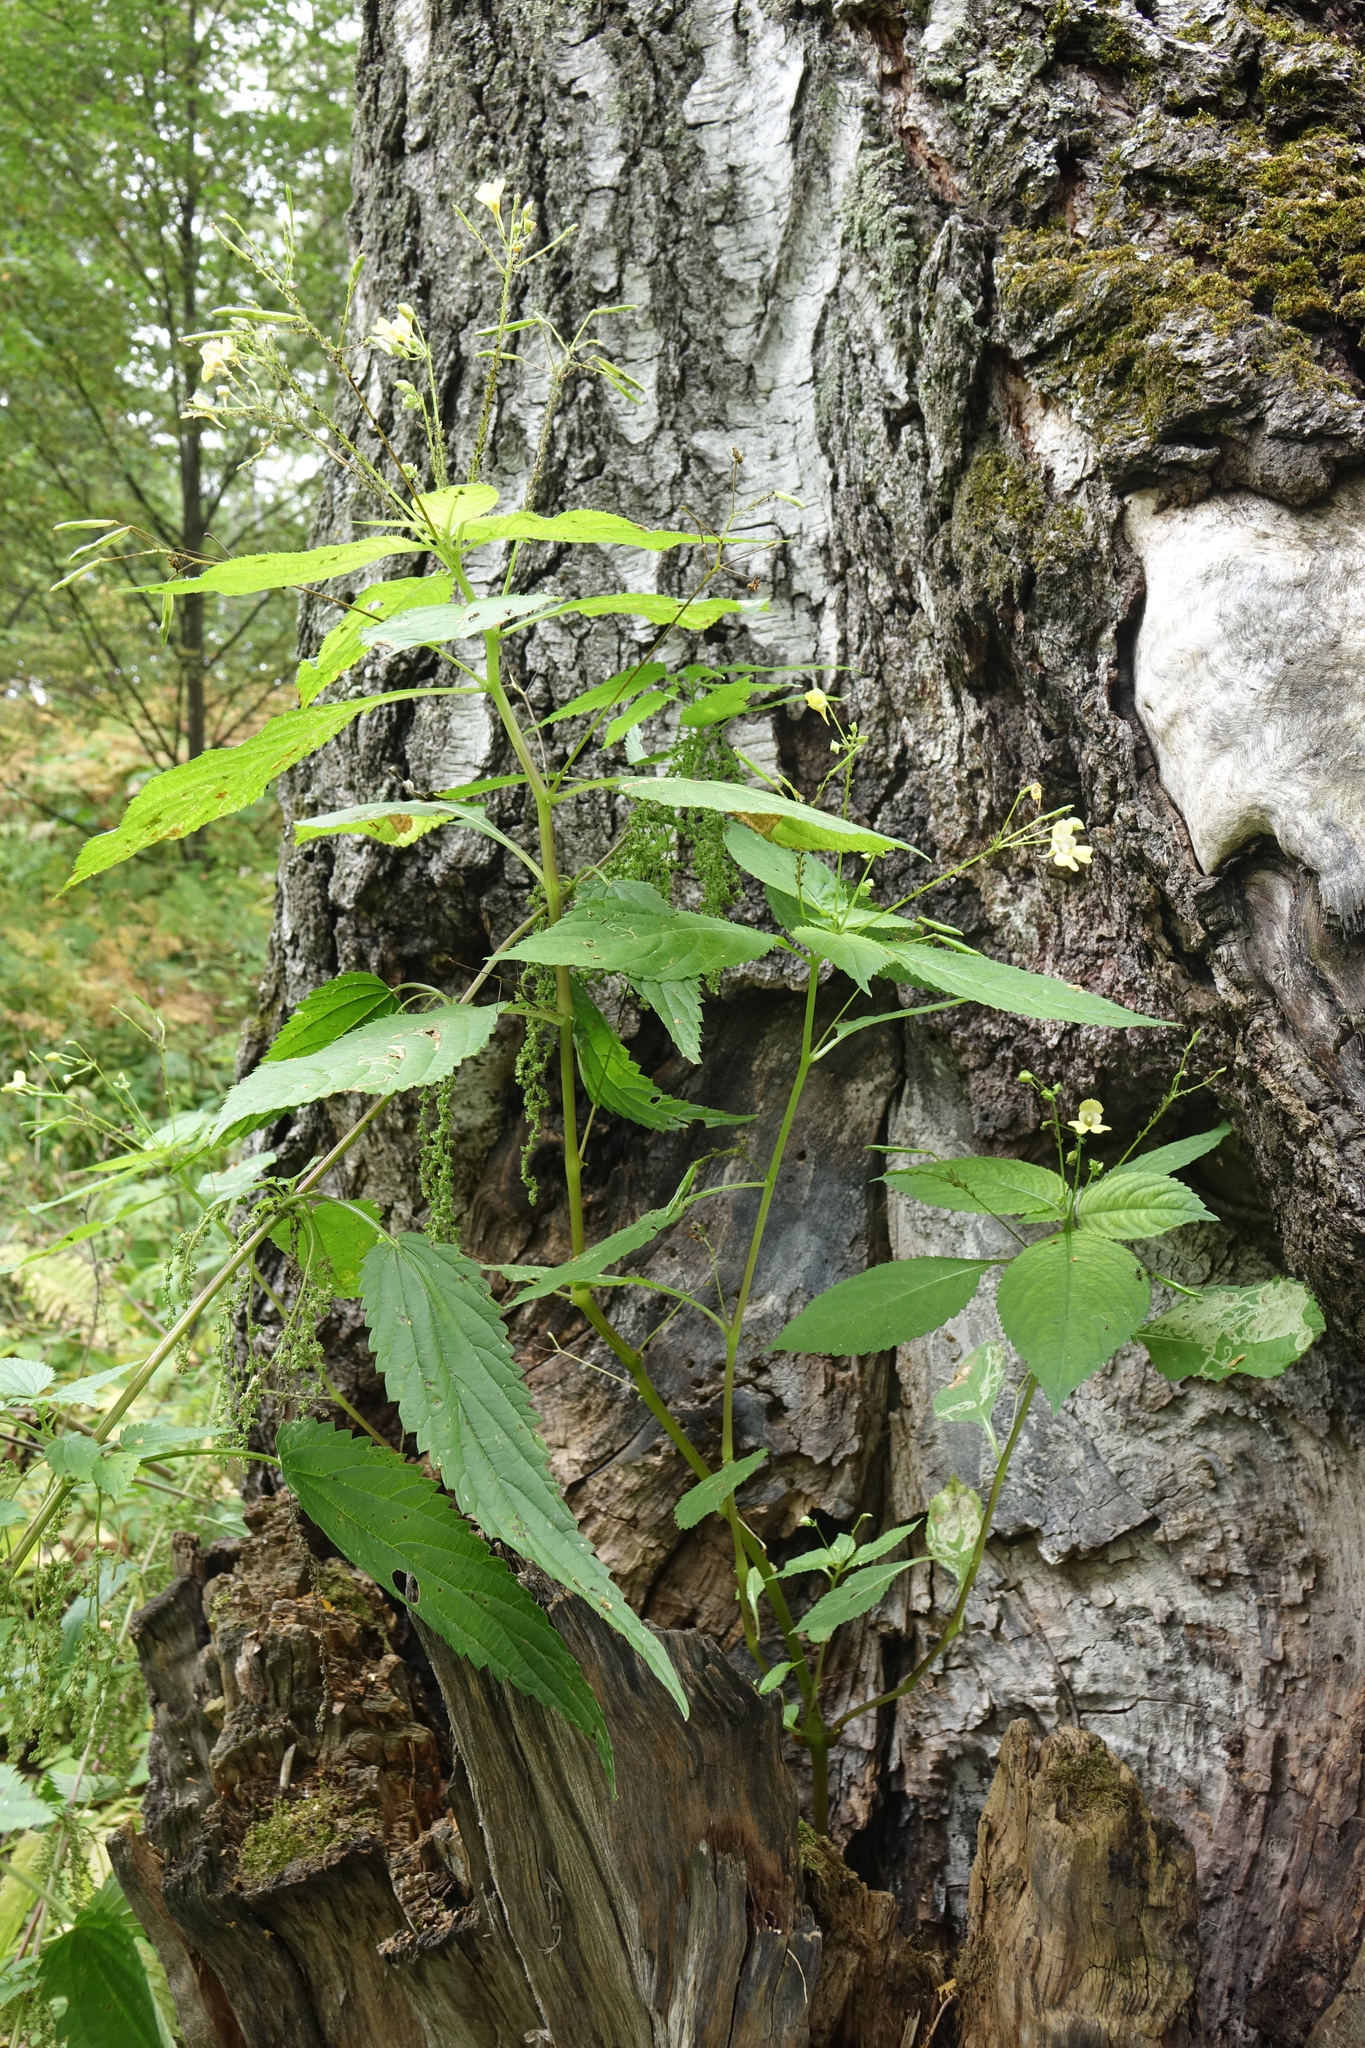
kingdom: Plantae
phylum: Tracheophyta
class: Magnoliopsida
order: Ericales
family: Balsaminaceae
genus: Impatiens
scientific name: Impatiens parviflora
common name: Small balsam
